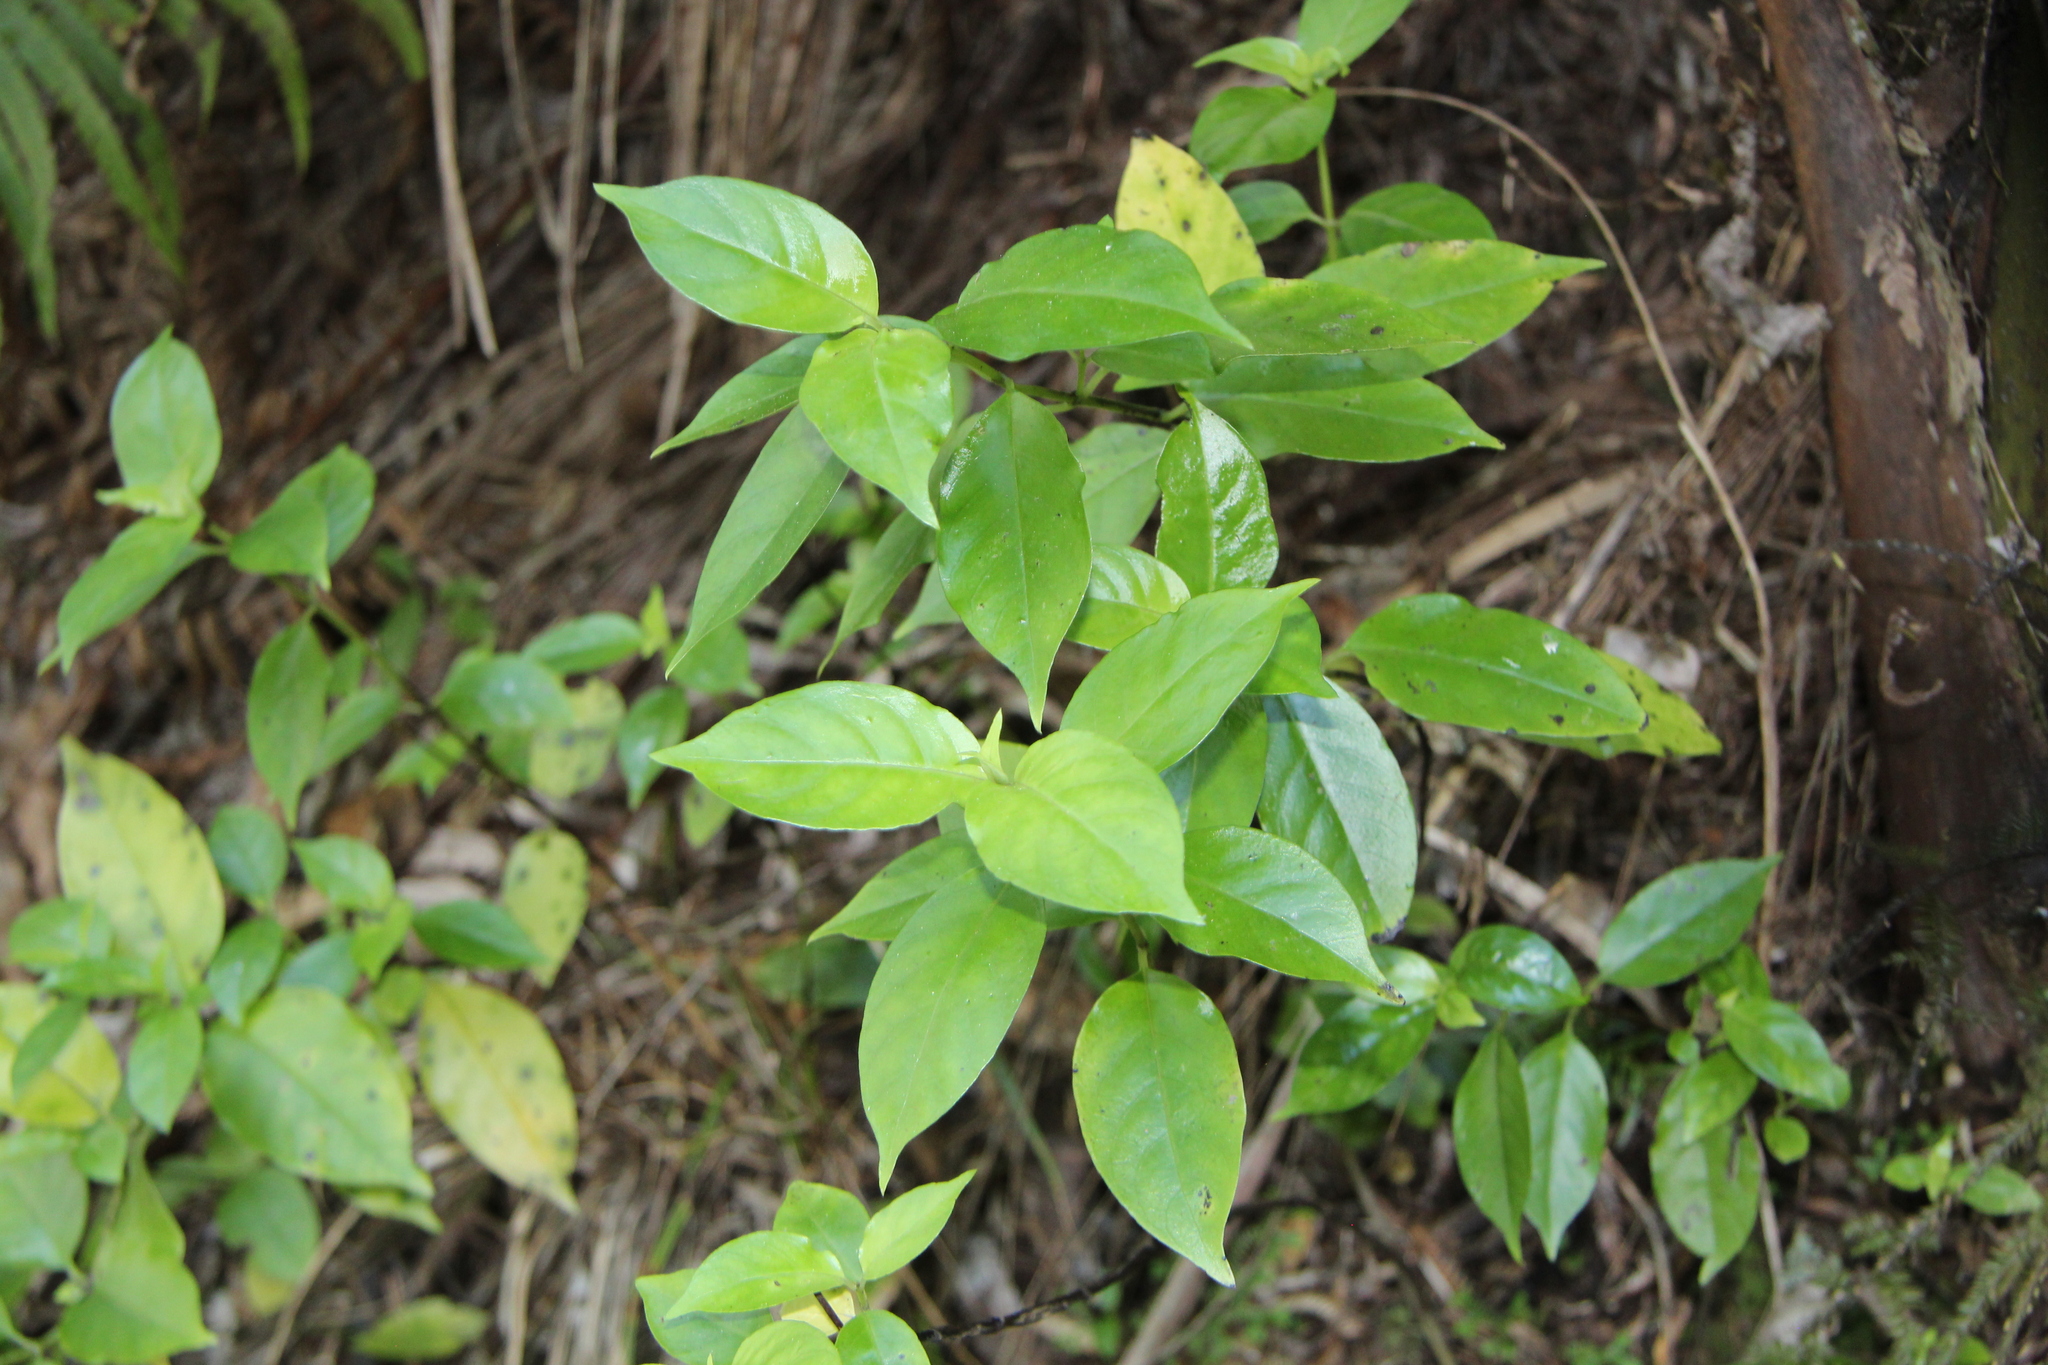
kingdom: Plantae
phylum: Tracheophyta
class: Magnoliopsida
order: Gentianales
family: Loganiaceae
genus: Geniostoma
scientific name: Geniostoma ligustrifolium
